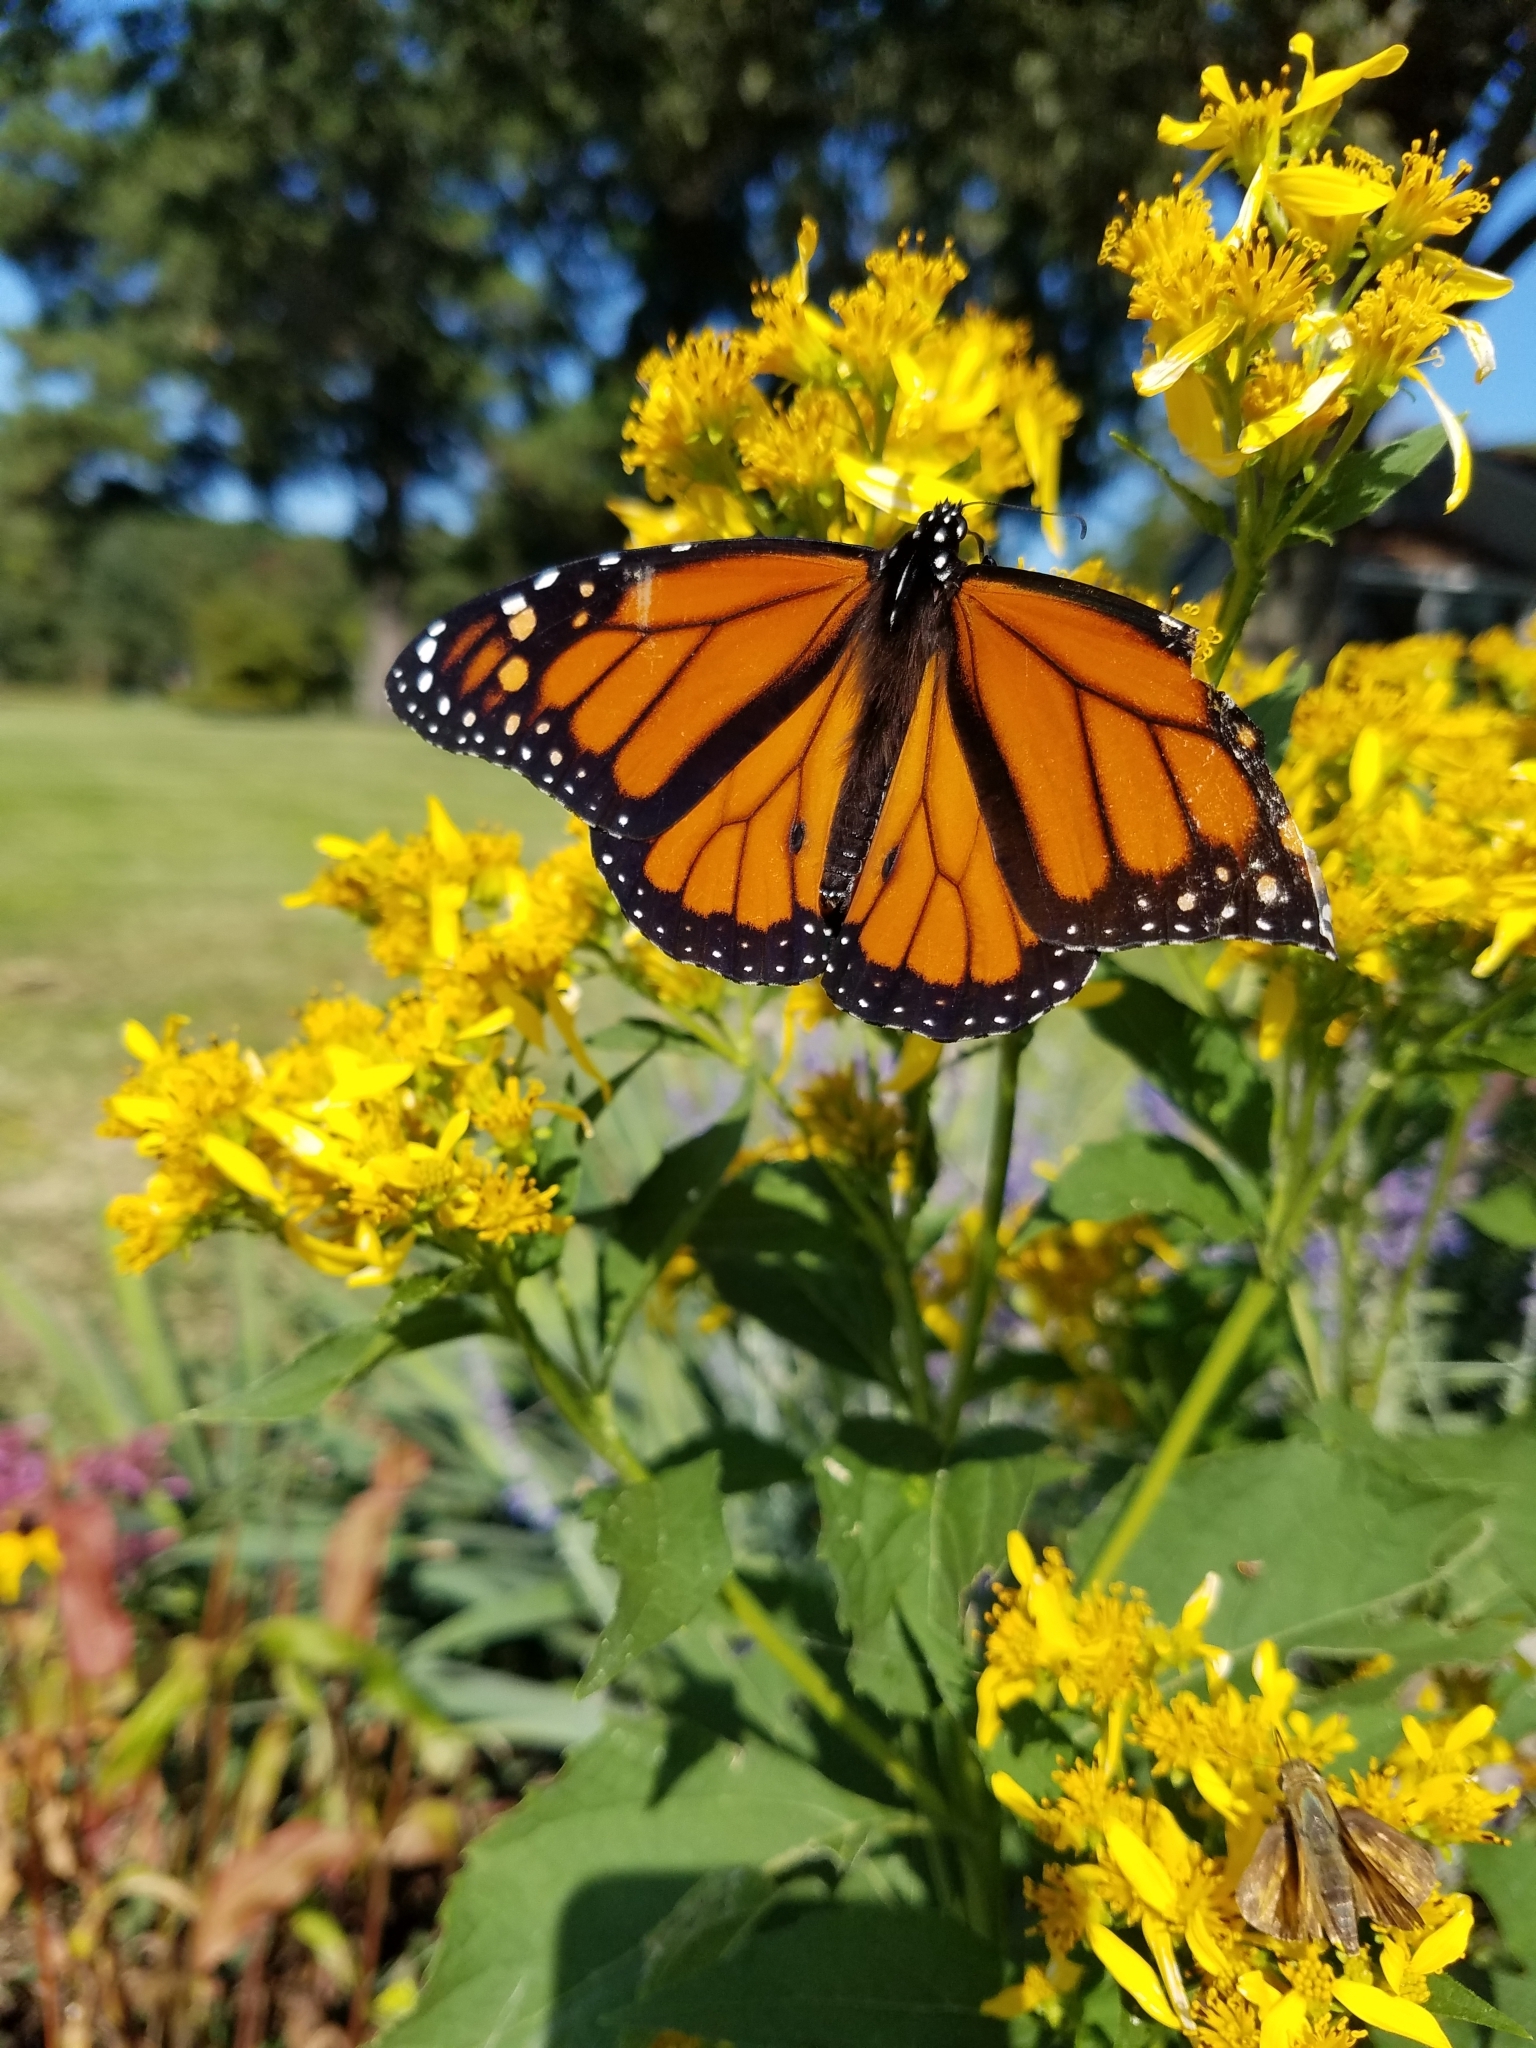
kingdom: Animalia
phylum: Arthropoda
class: Insecta
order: Lepidoptera
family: Nymphalidae
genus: Danaus
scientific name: Danaus plexippus
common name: Monarch
